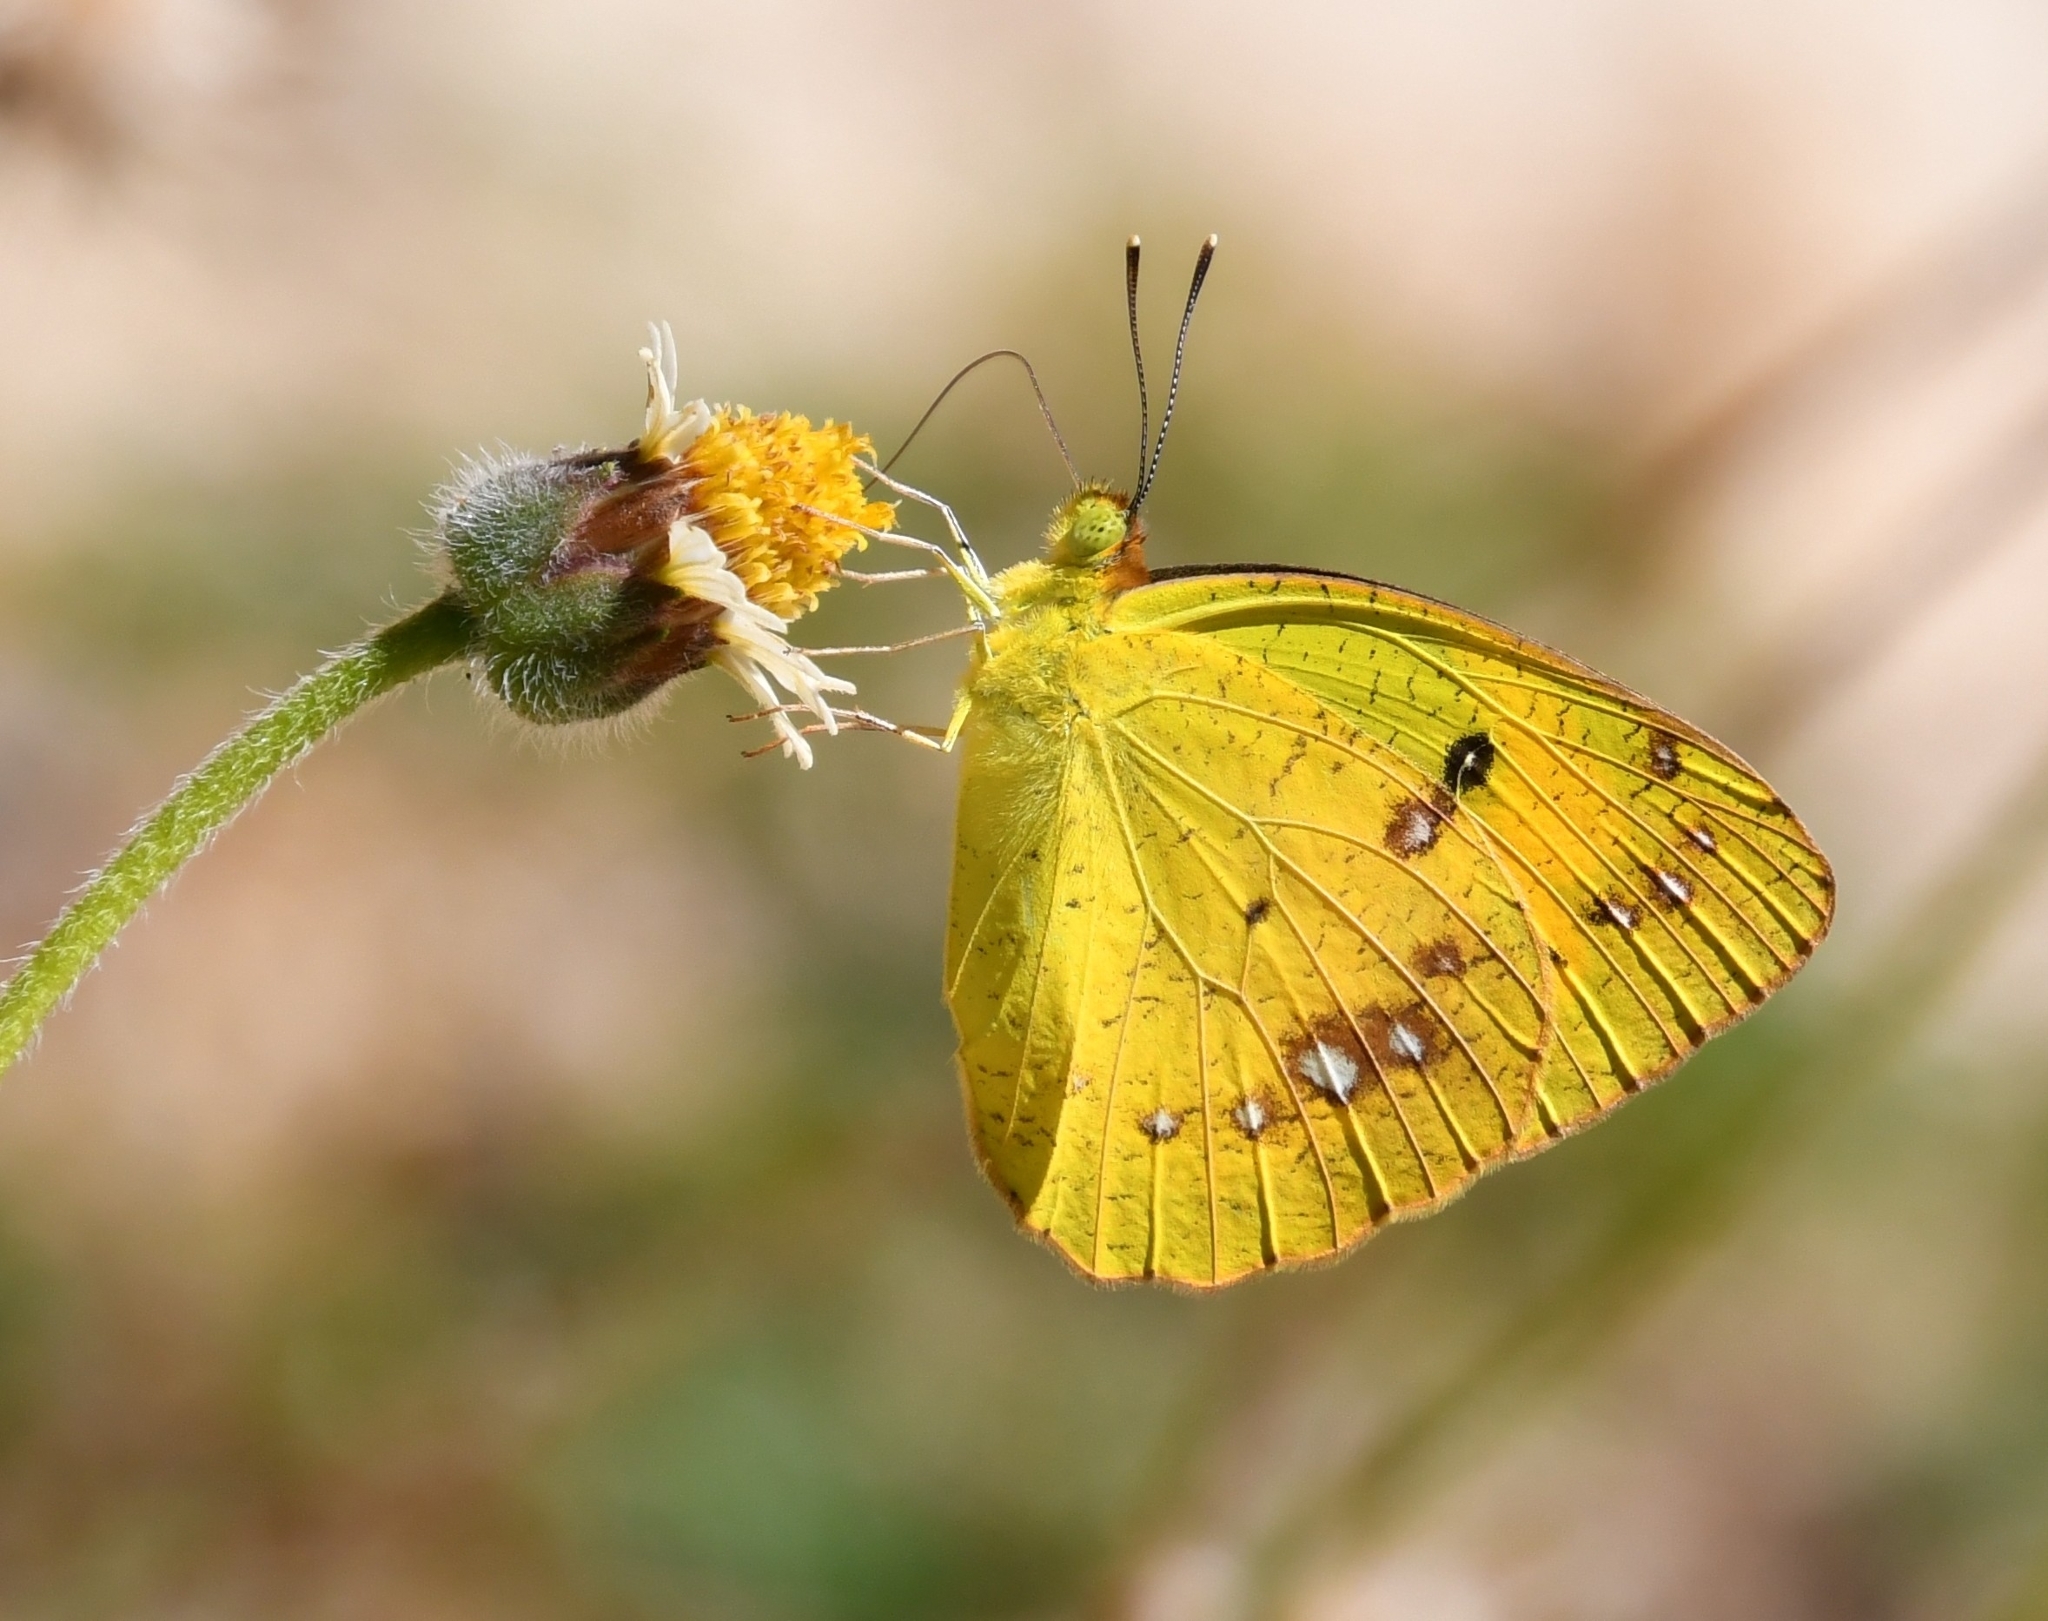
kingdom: Animalia
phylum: Arthropoda
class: Insecta
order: Lepidoptera
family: Pieridae
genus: Ixias
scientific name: Ixias pyrene
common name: Yellow orange tip
